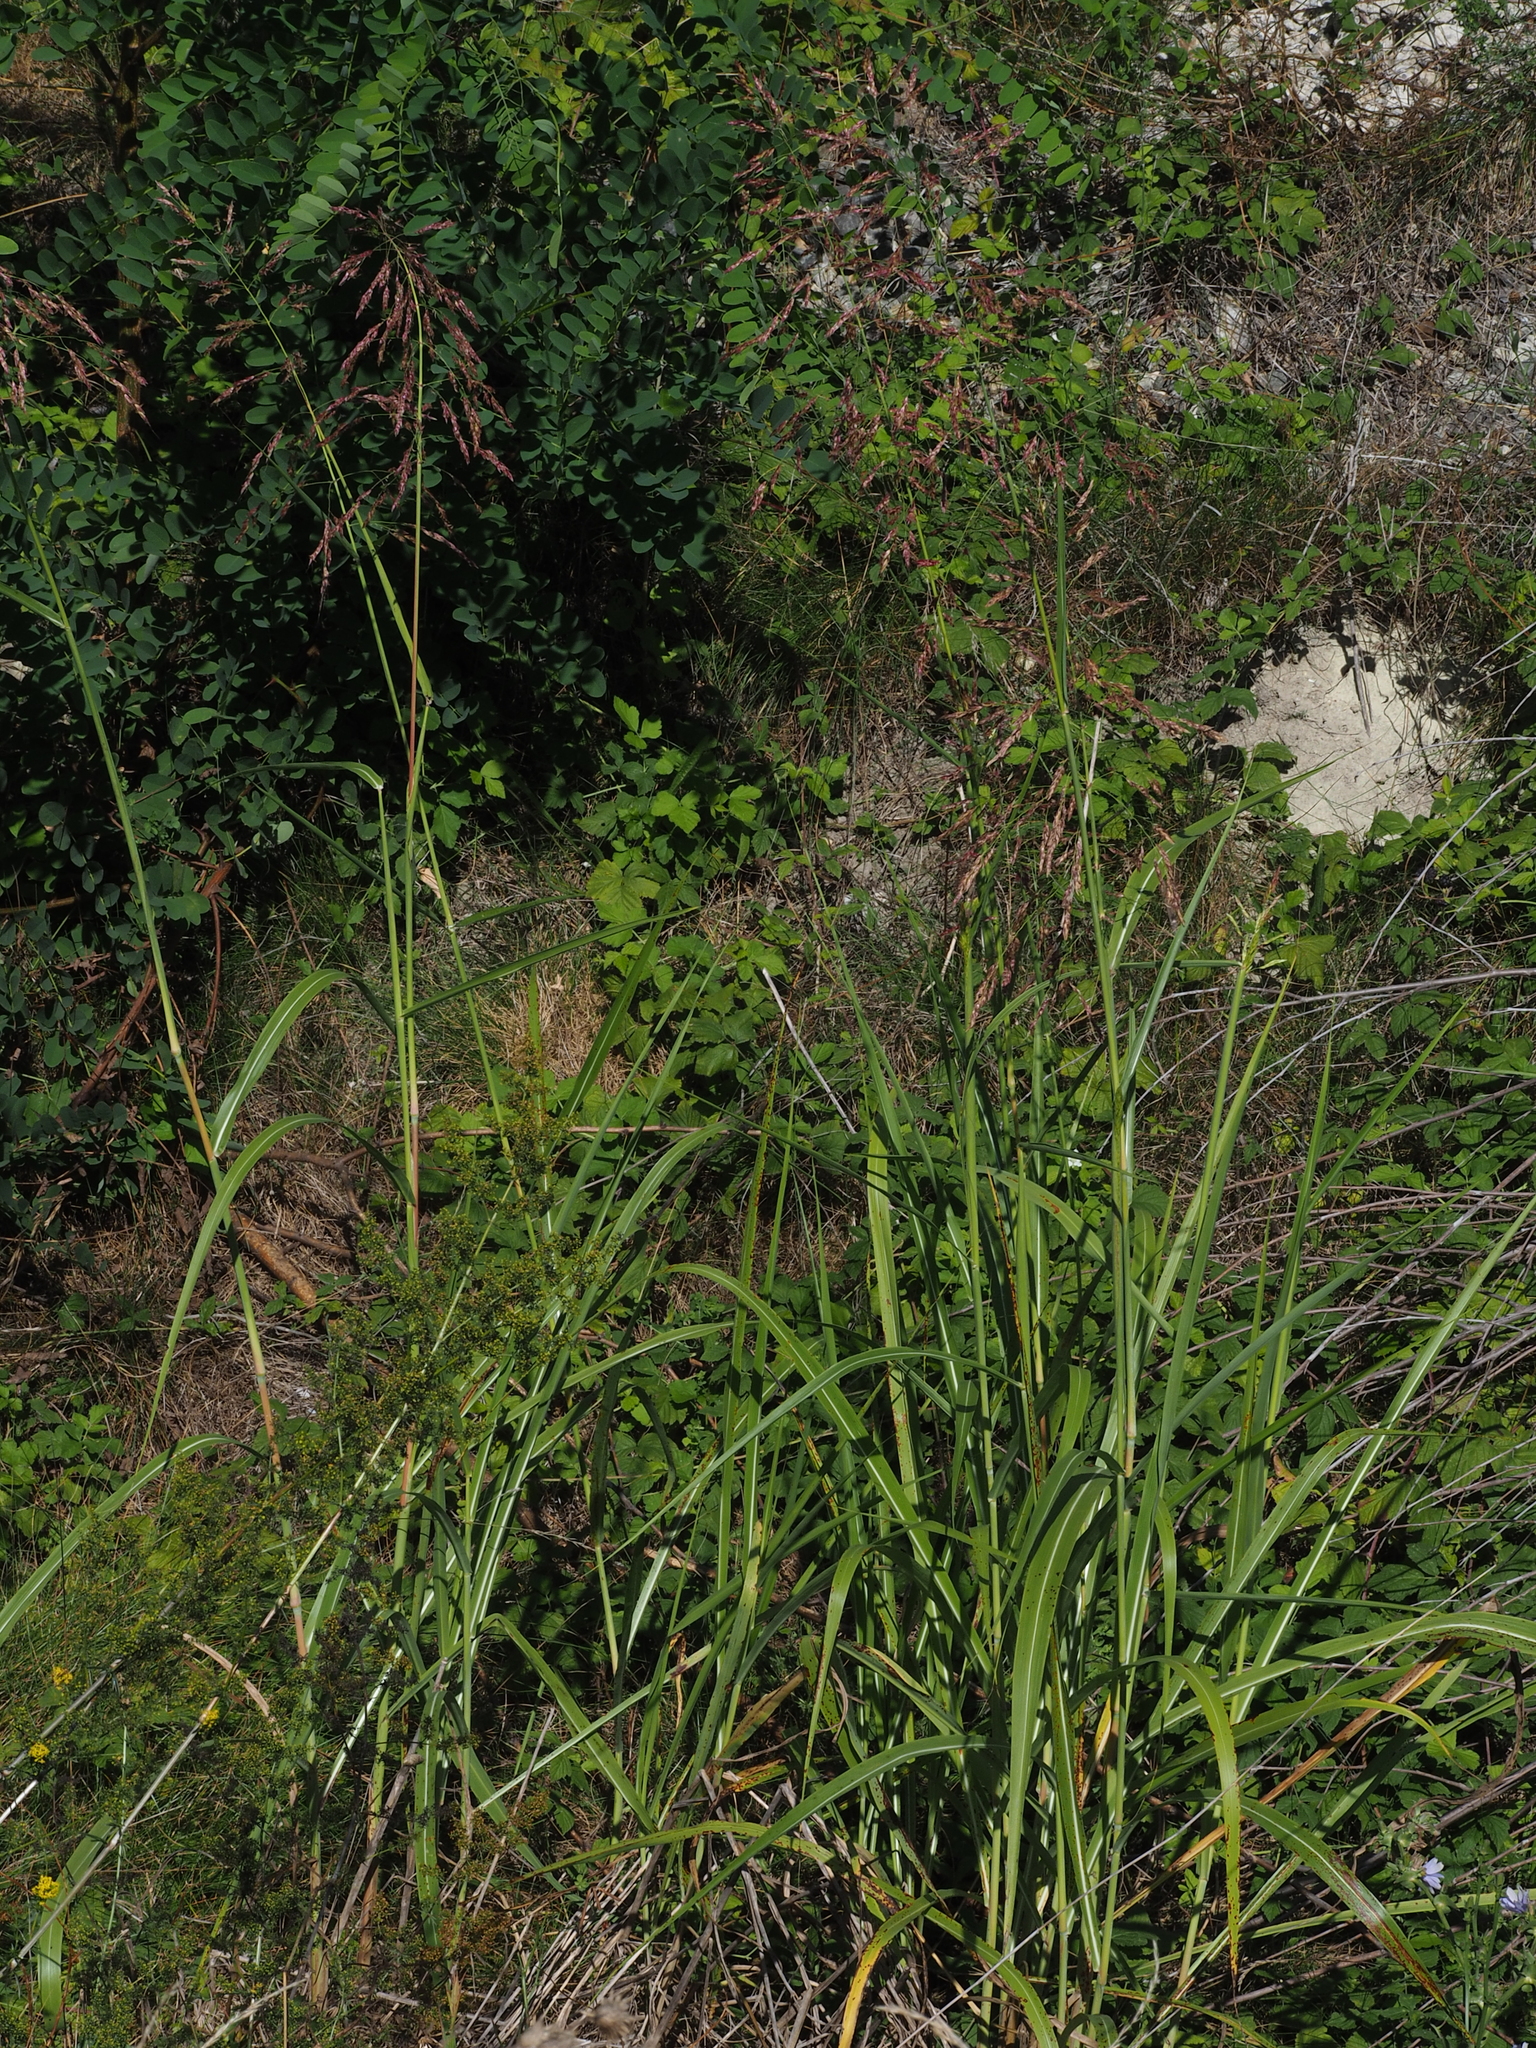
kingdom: Plantae
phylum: Tracheophyta
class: Liliopsida
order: Poales
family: Poaceae
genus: Sorghum
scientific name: Sorghum halepense
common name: Johnson-grass
